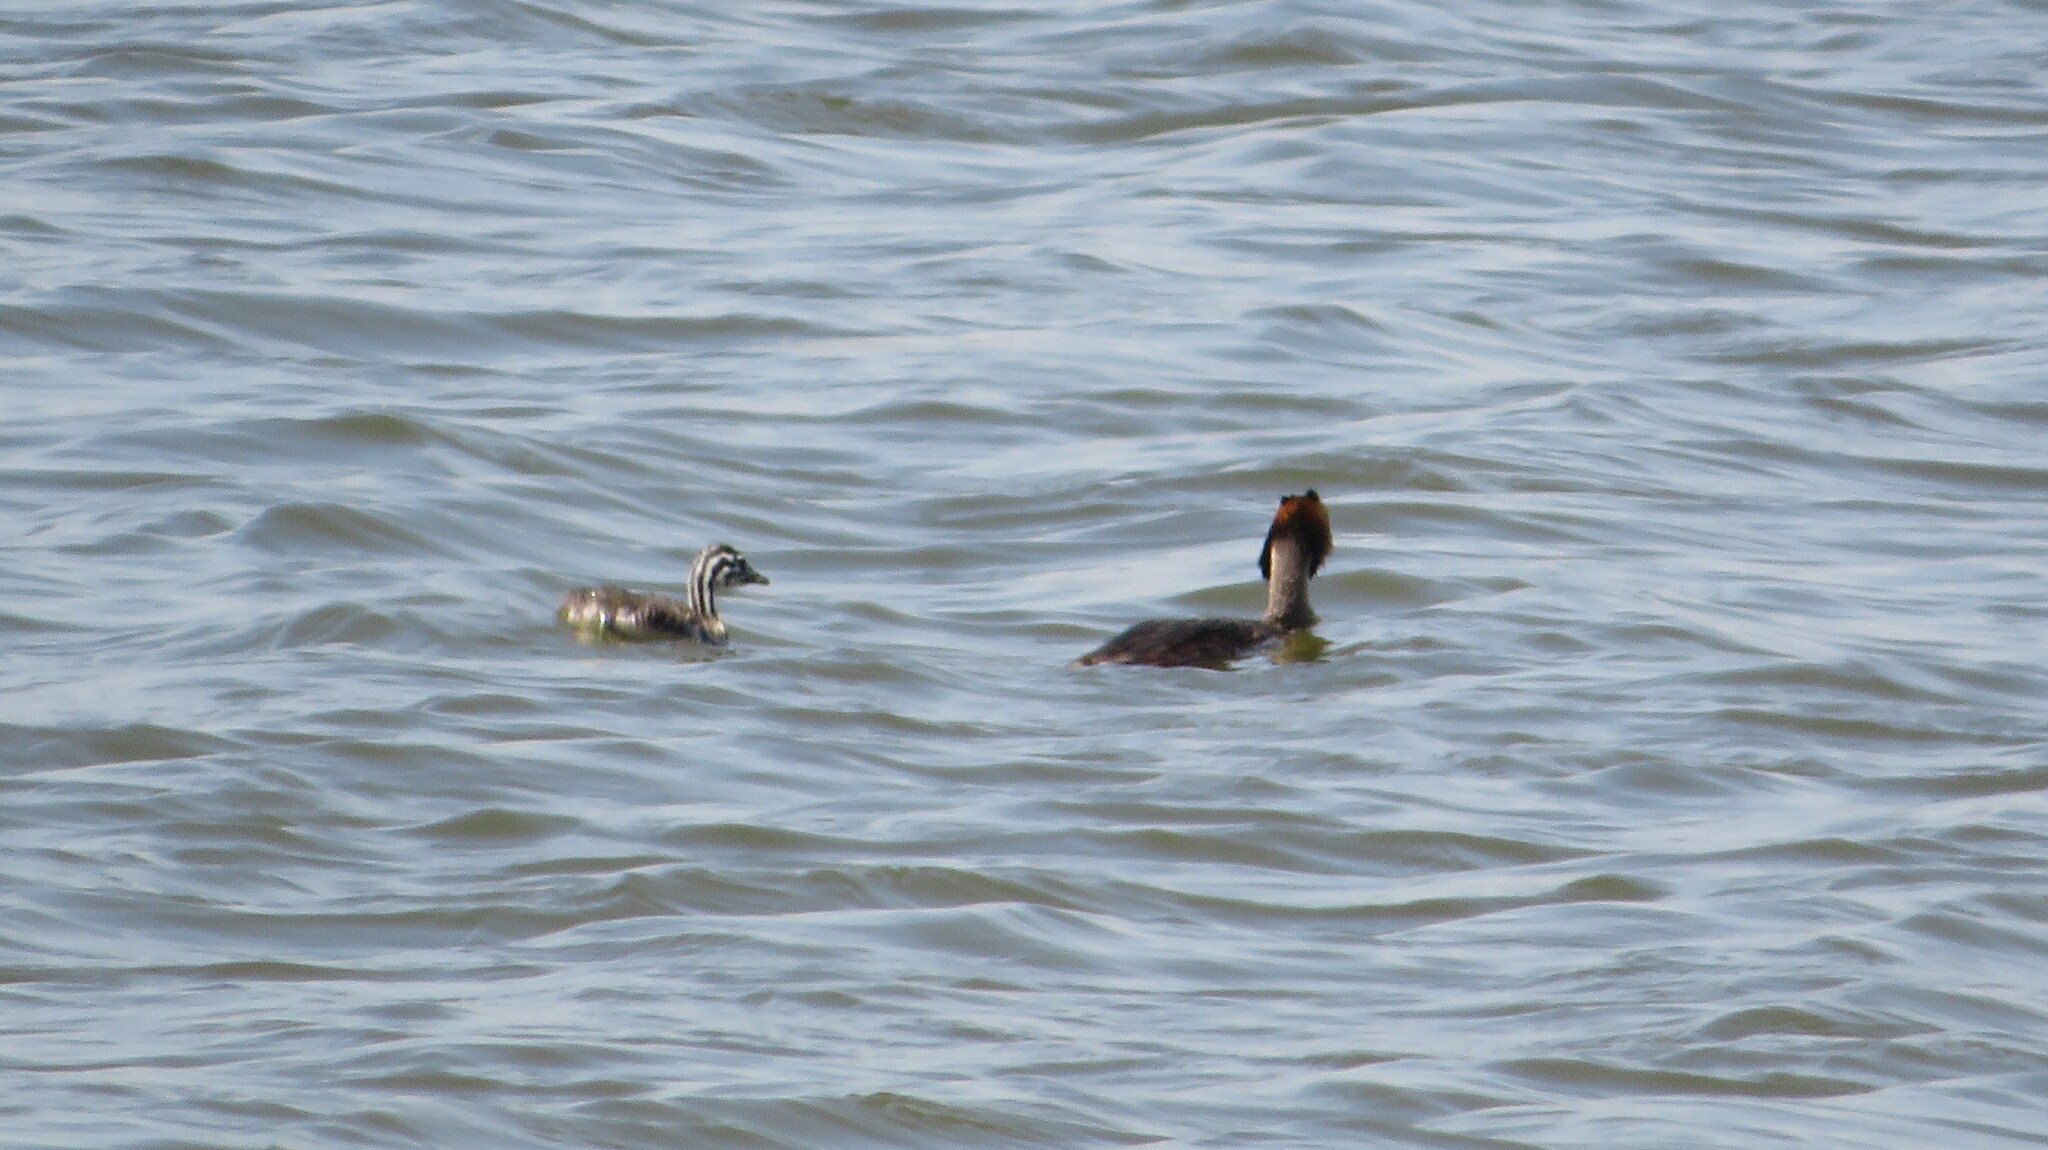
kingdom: Animalia
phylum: Chordata
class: Aves
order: Podicipediformes
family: Podicipedidae
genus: Podiceps
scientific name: Podiceps cristatus
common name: Great crested grebe
